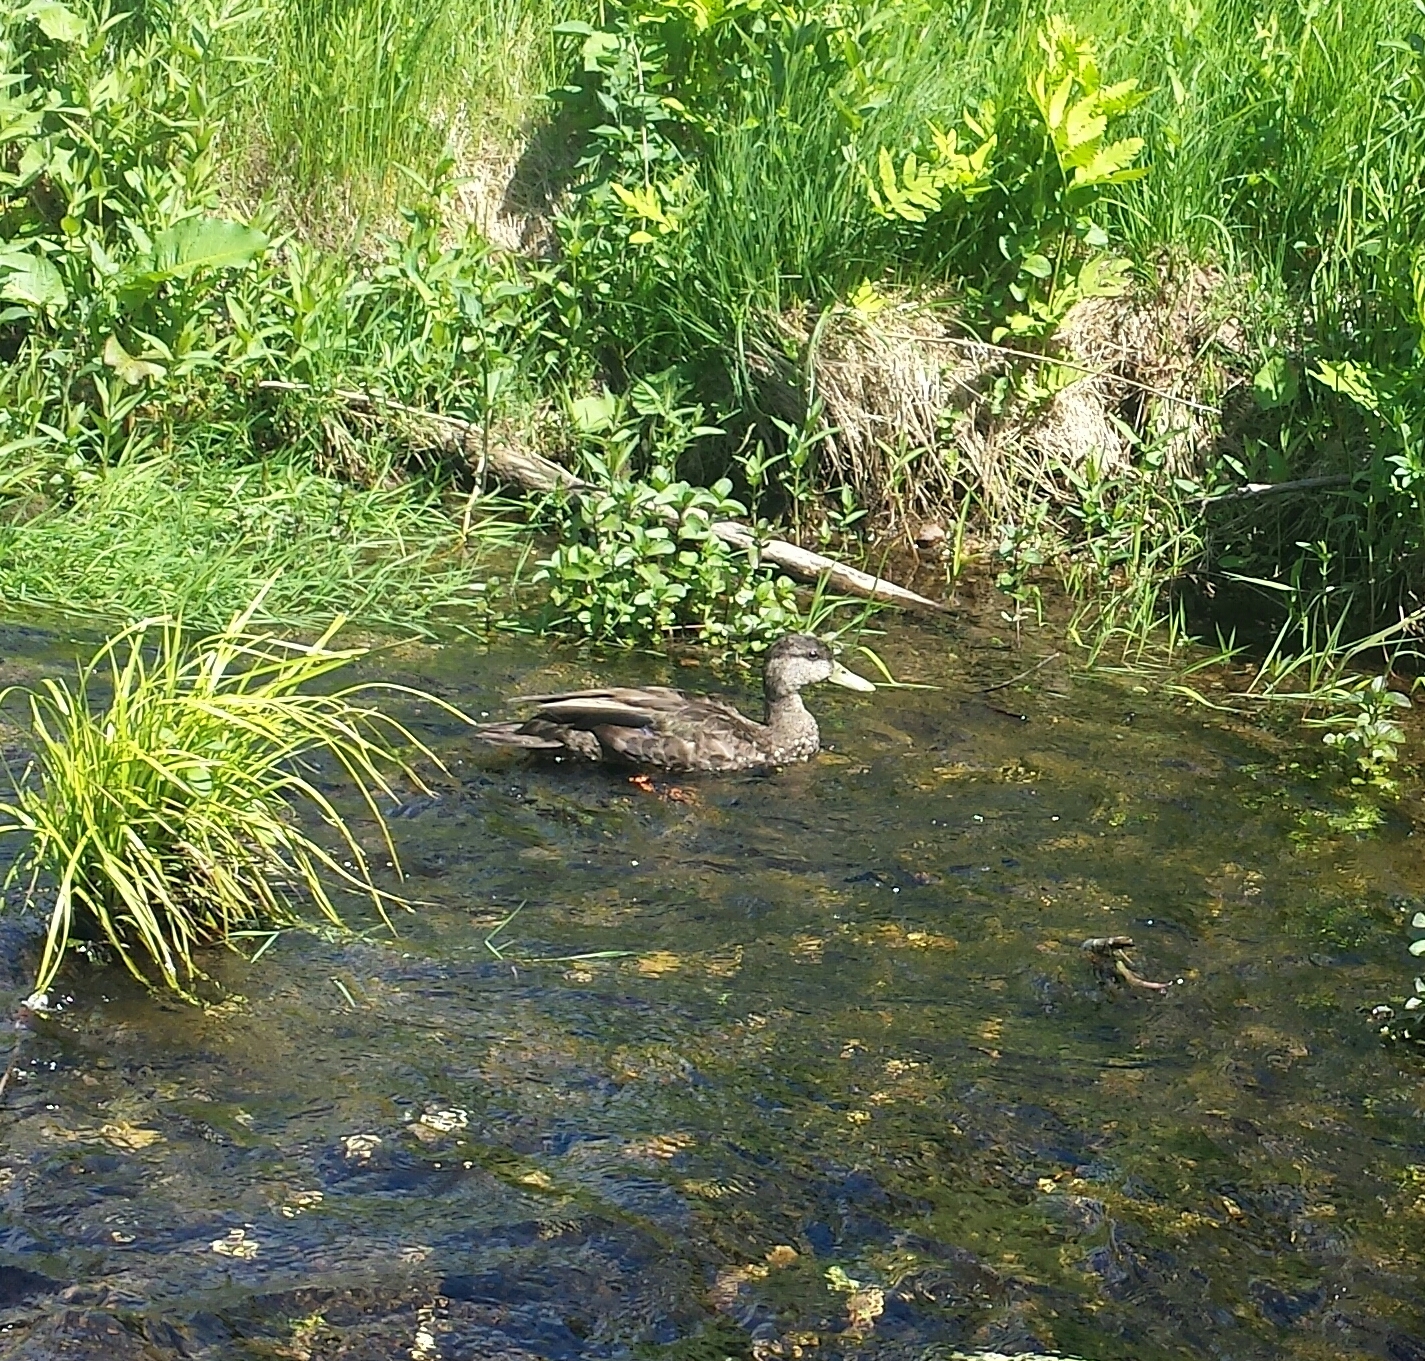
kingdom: Animalia
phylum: Chordata
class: Aves
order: Anseriformes
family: Anatidae
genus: Anas
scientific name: Anas rubripes
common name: American black duck
